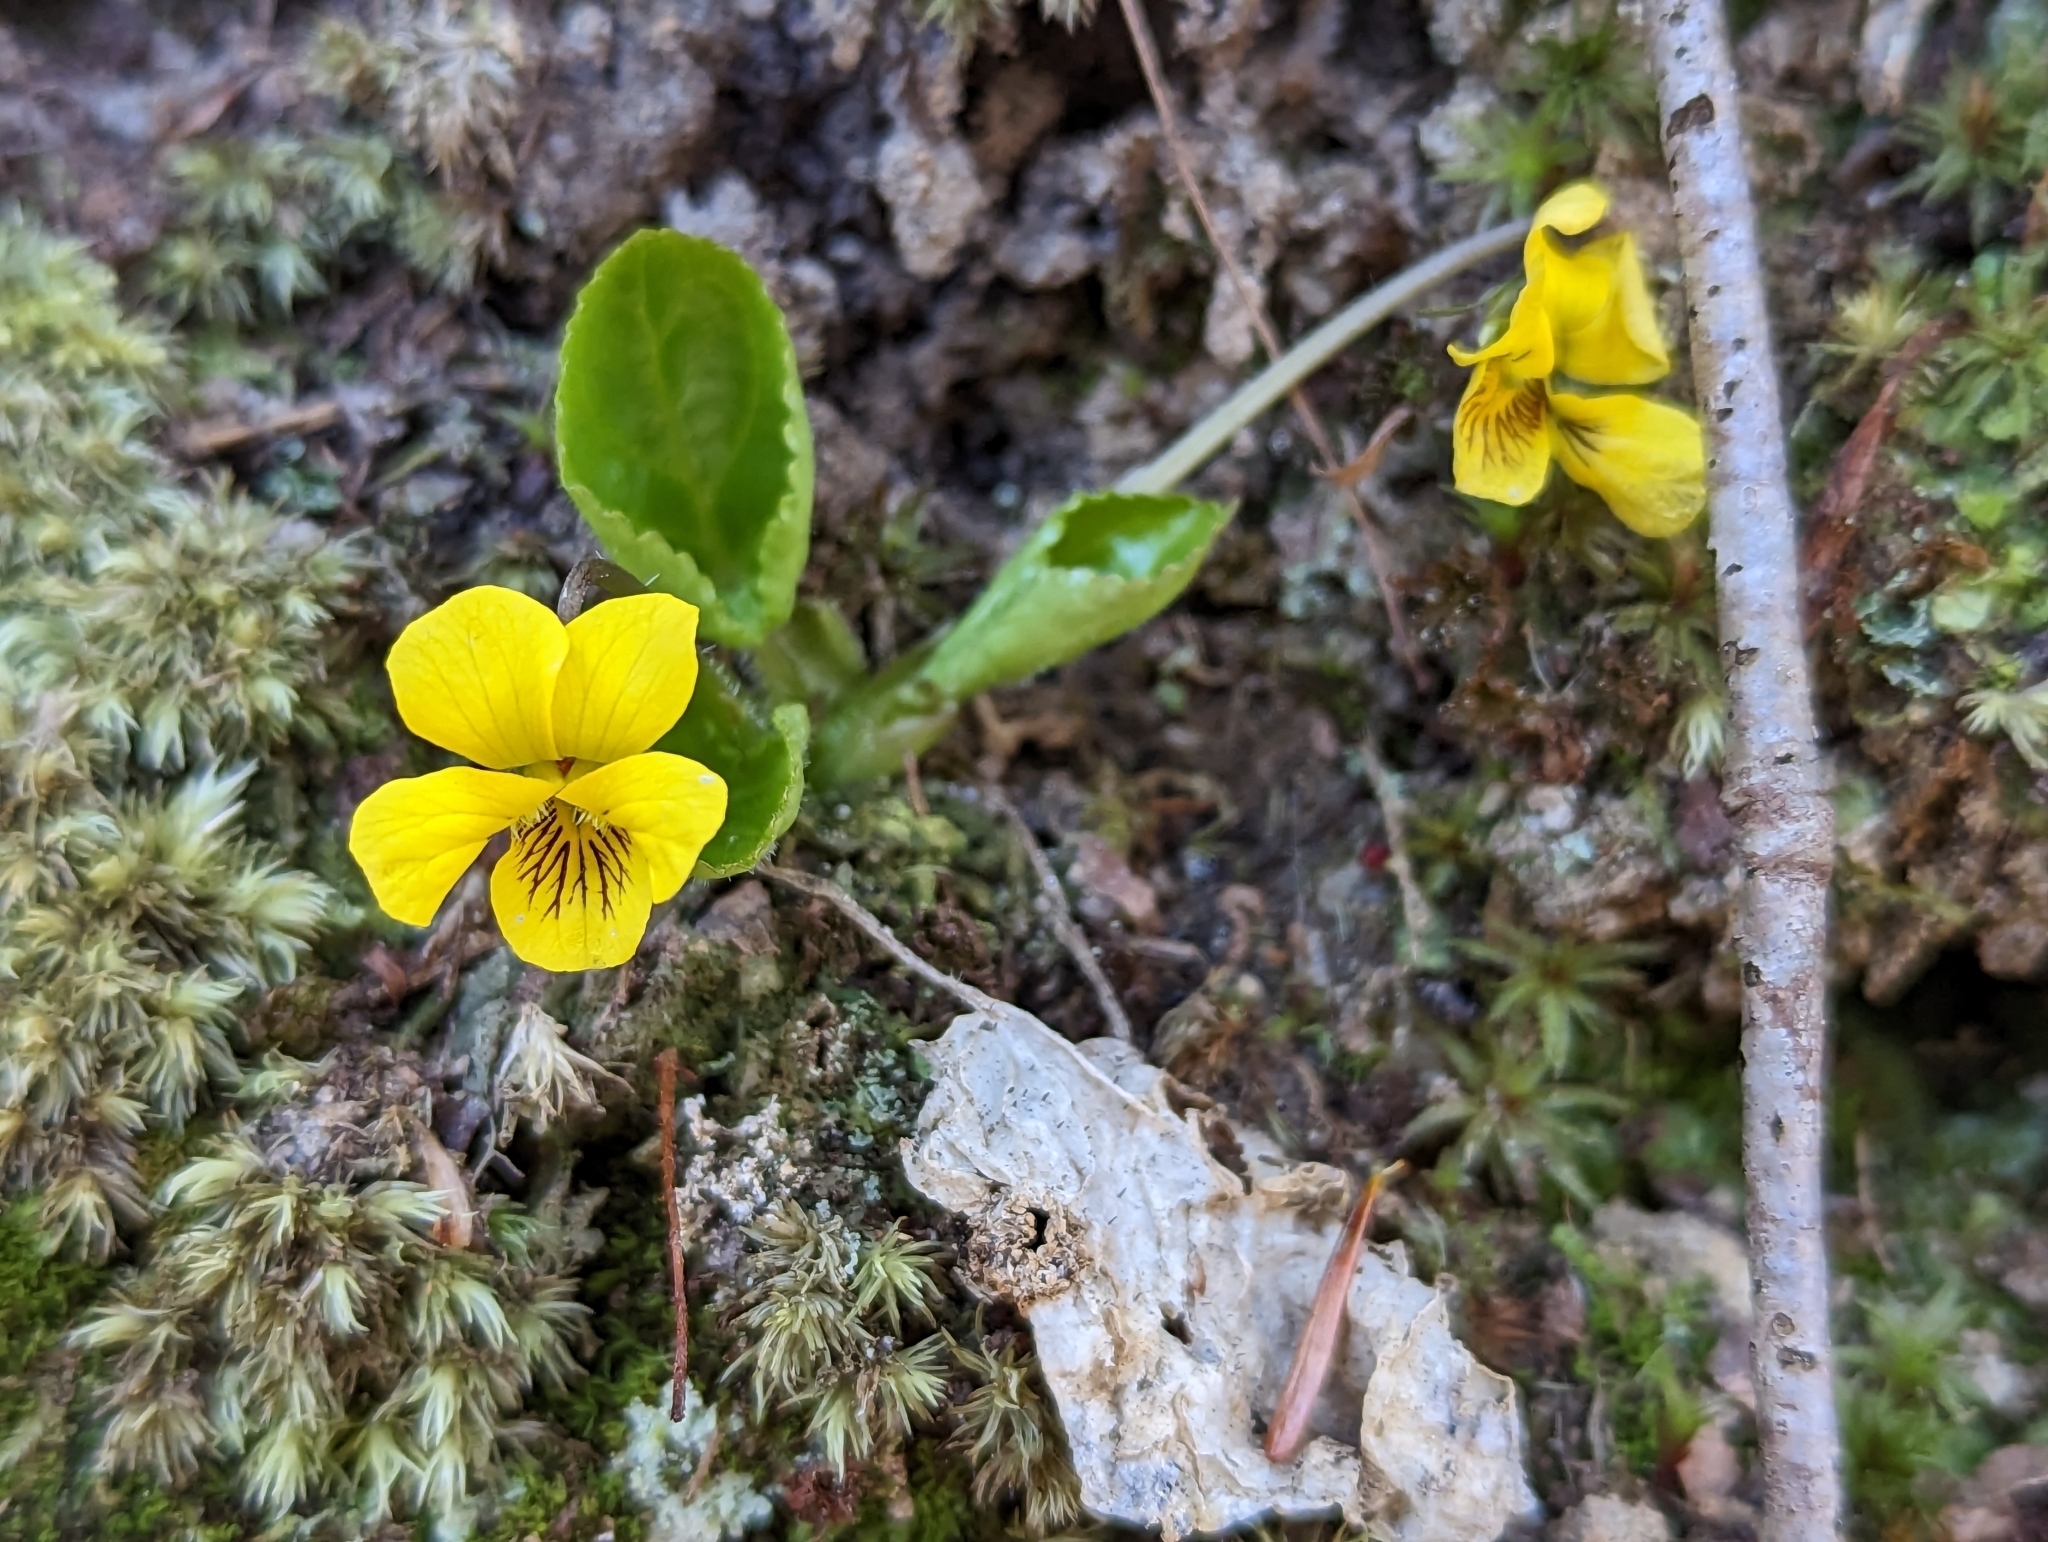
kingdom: Plantae
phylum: Tracheophyta
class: Magnoliopsida
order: Malpighiales
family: Violaceae
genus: Viola
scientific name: Viola rotundifolia
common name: Early yellow violet
